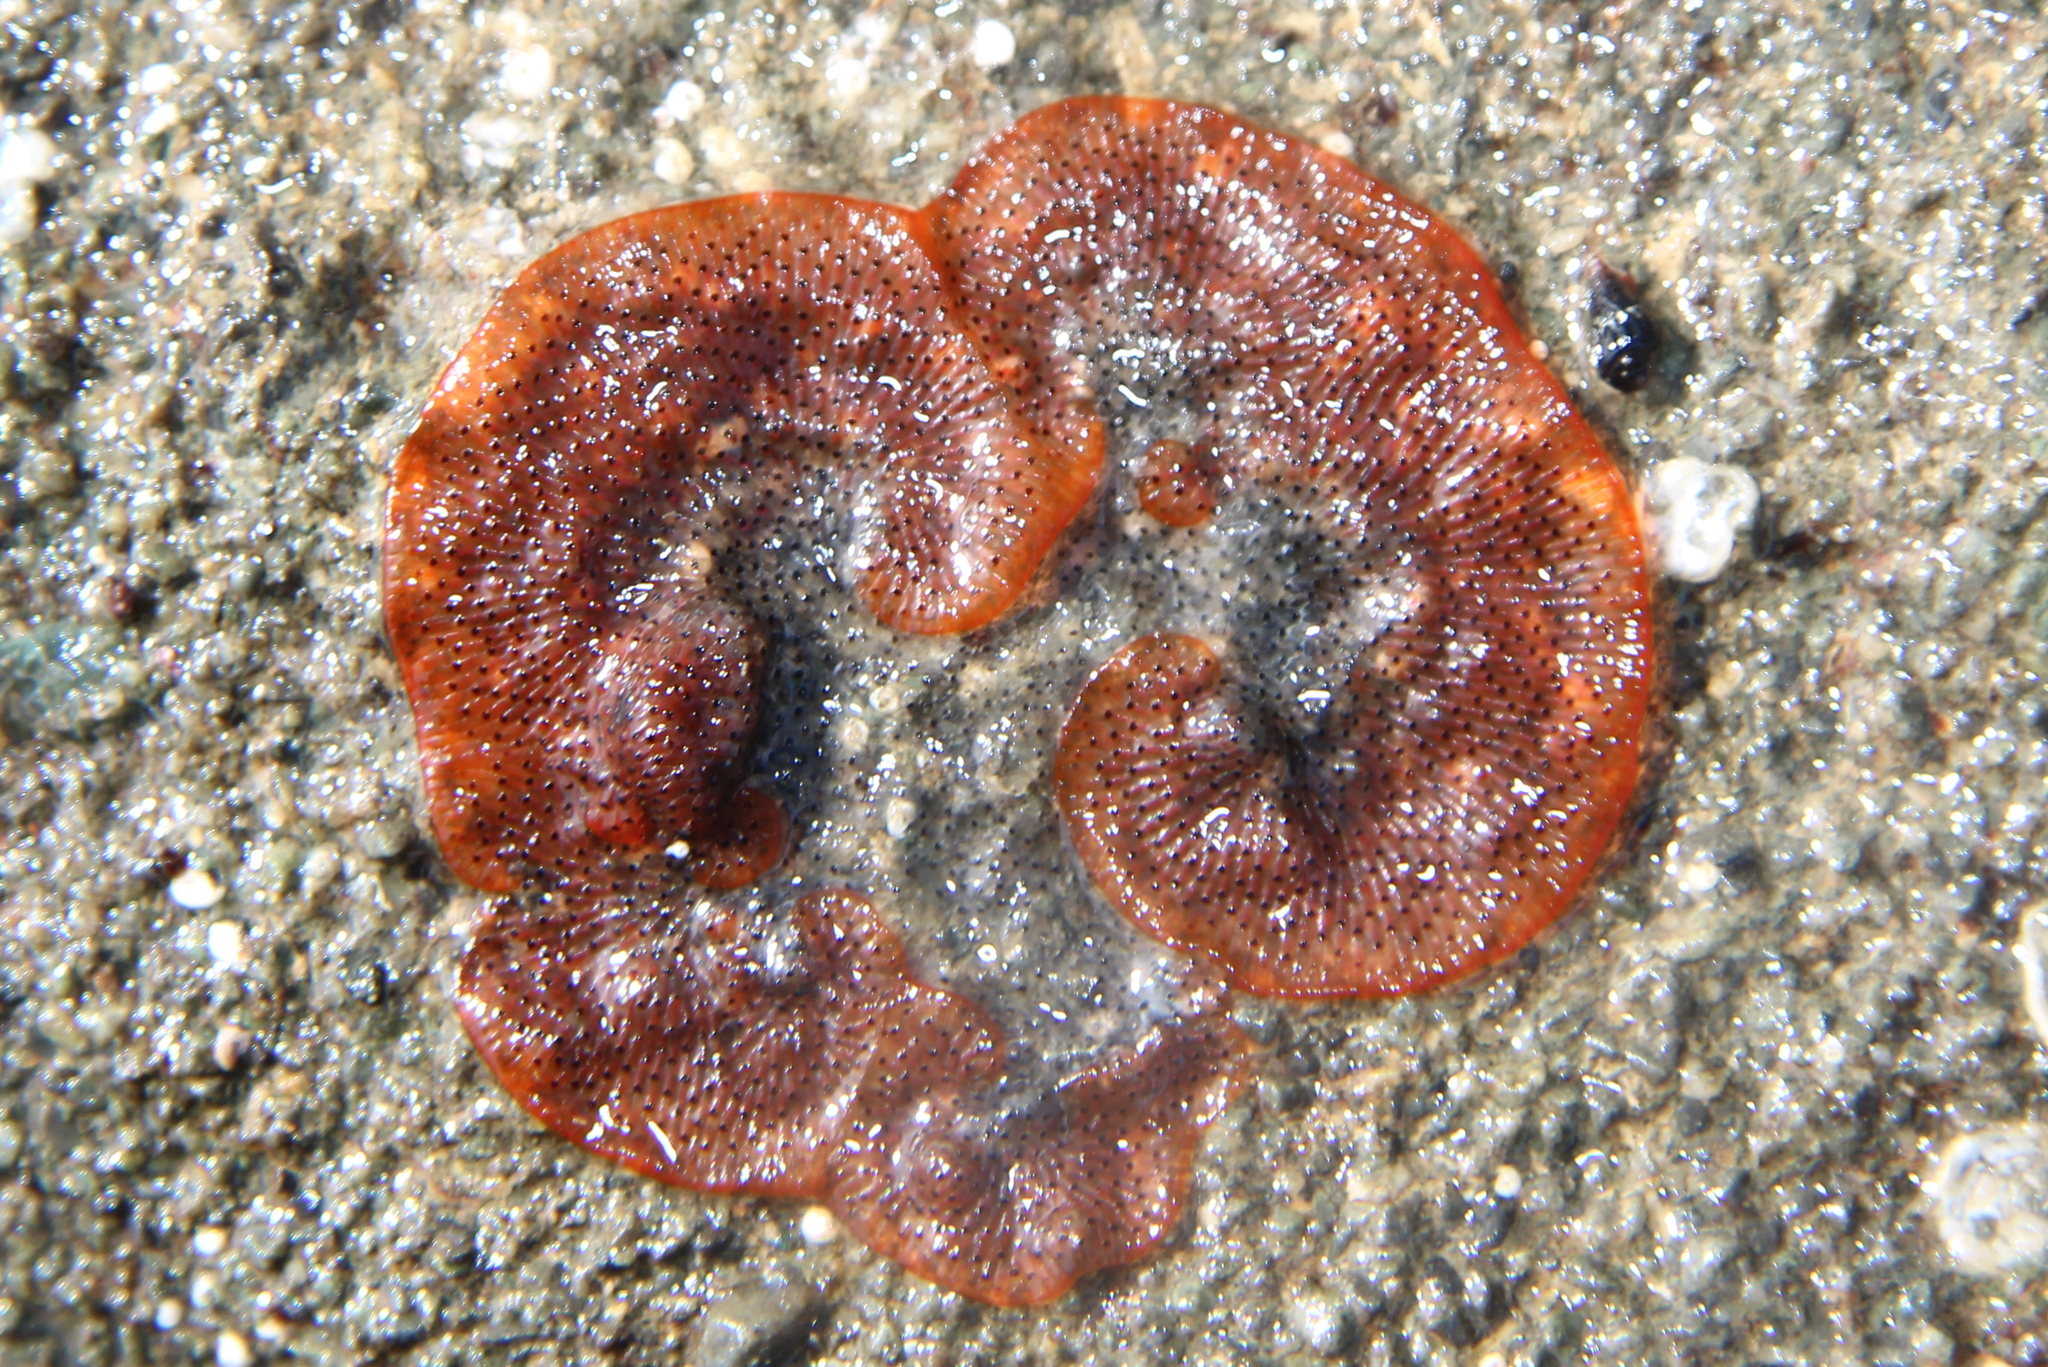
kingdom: Animalia
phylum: Bryozoa
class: Gymnolaemata
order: Cheilostomatida
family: Watersiporidae
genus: Watersipora
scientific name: Watersipora subatra
